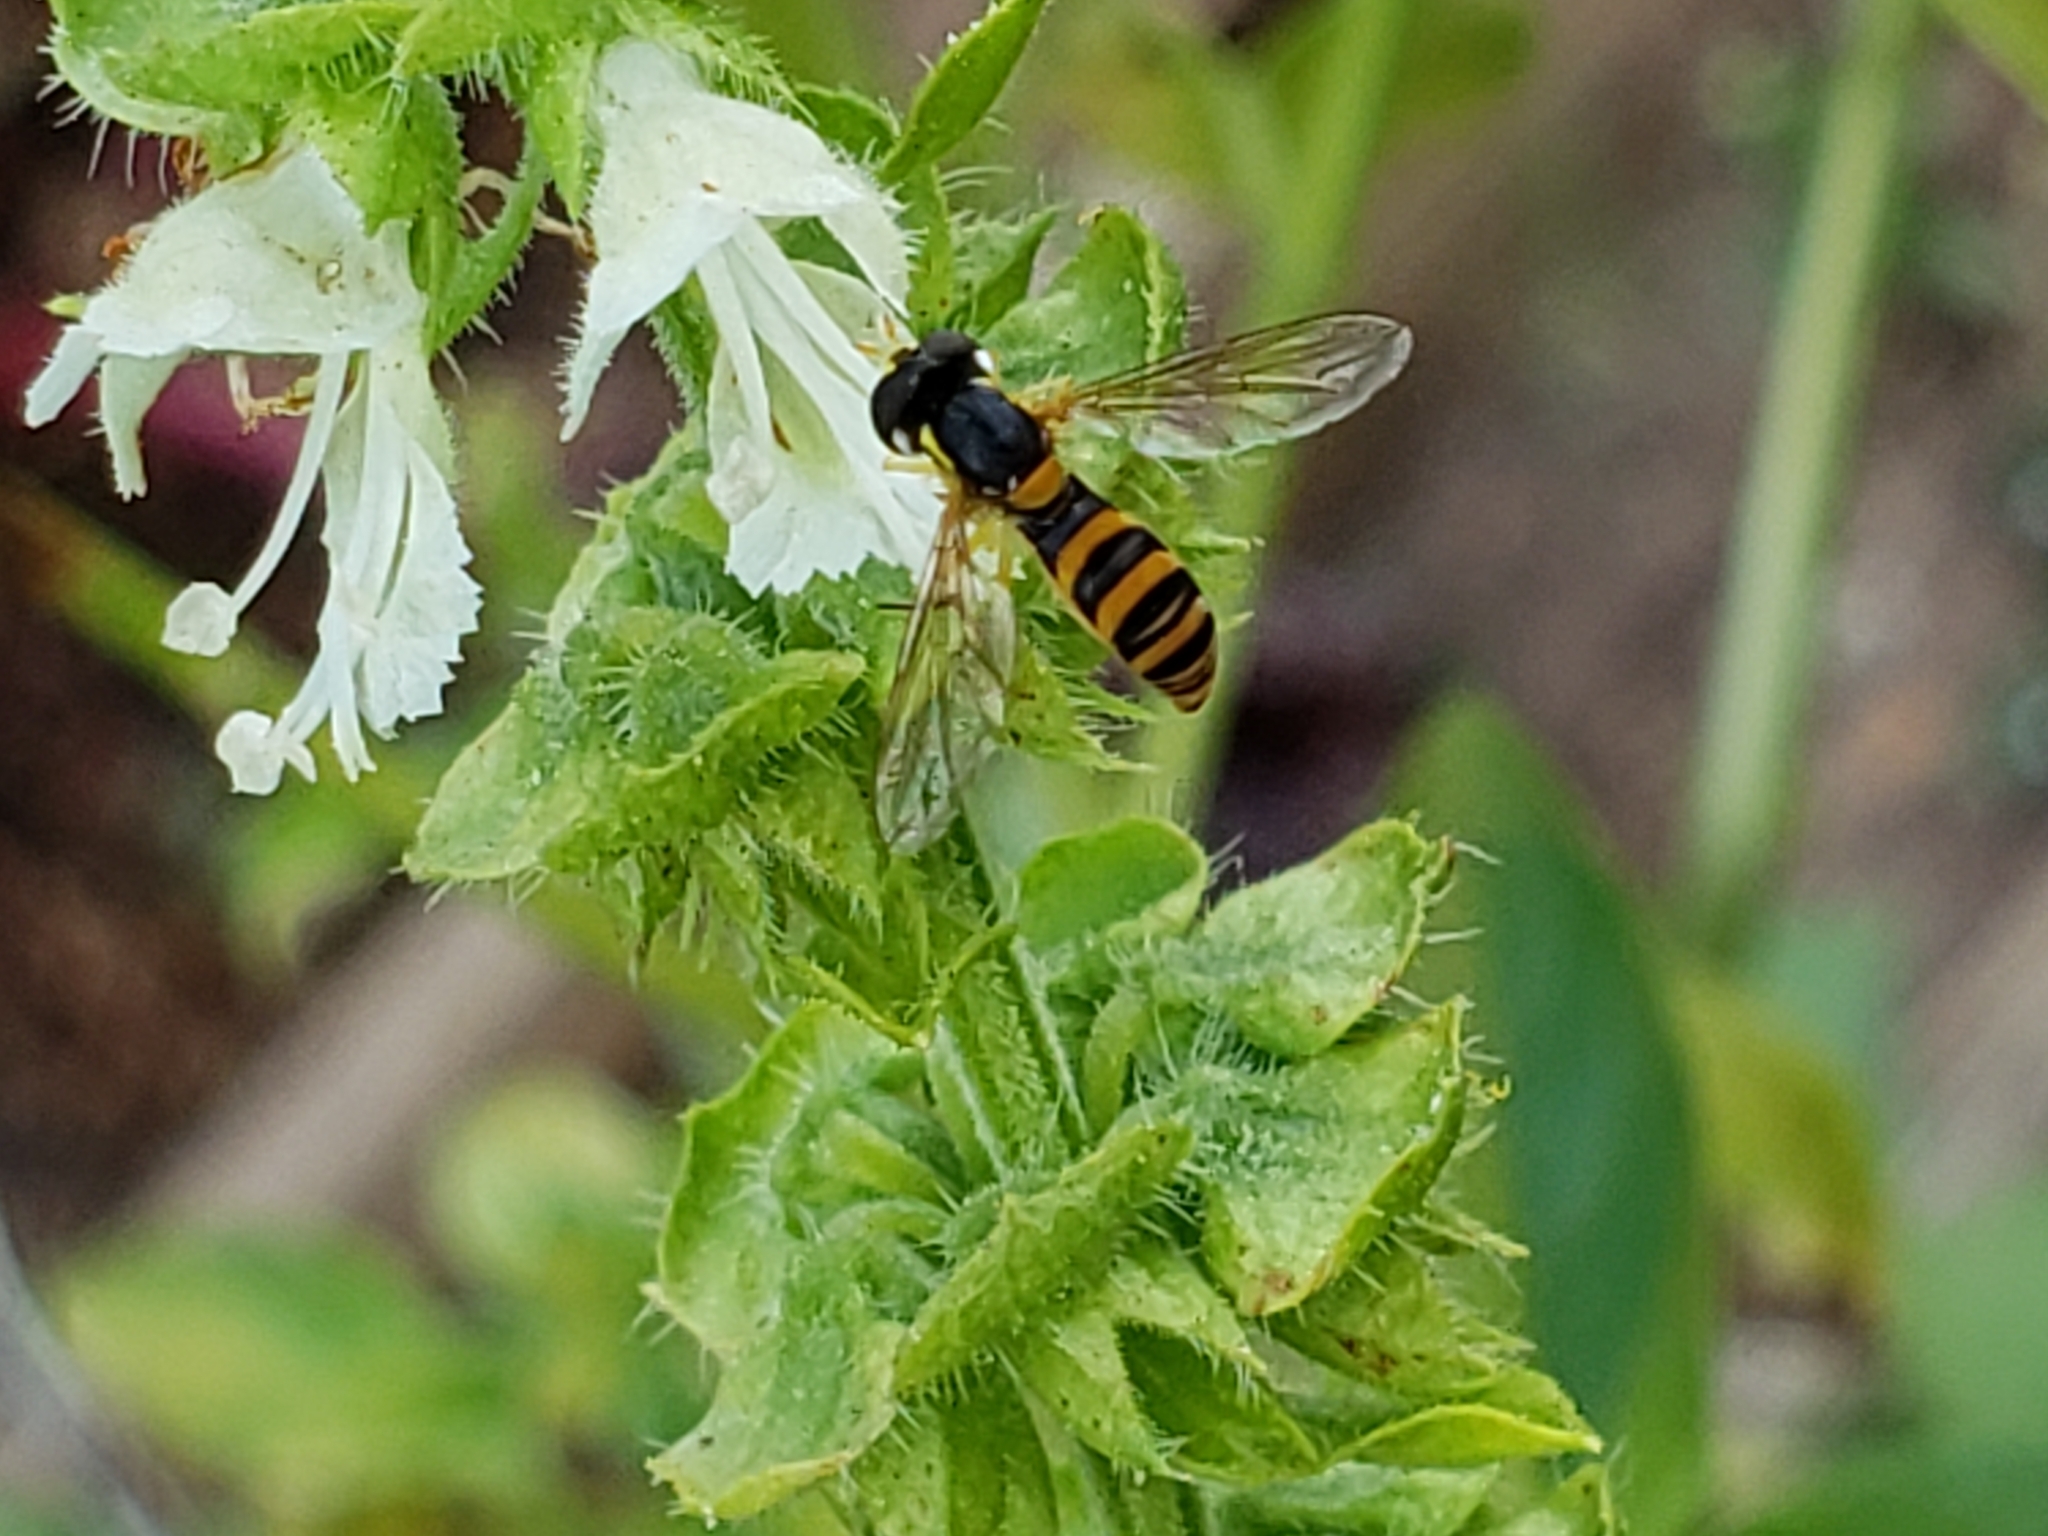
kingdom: Animalia
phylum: Arthropoda
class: Insecta
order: Diptera
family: Syrphidae
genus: Sphaerophoria
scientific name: Sphaerophoria contigua
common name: Tufted globetail
